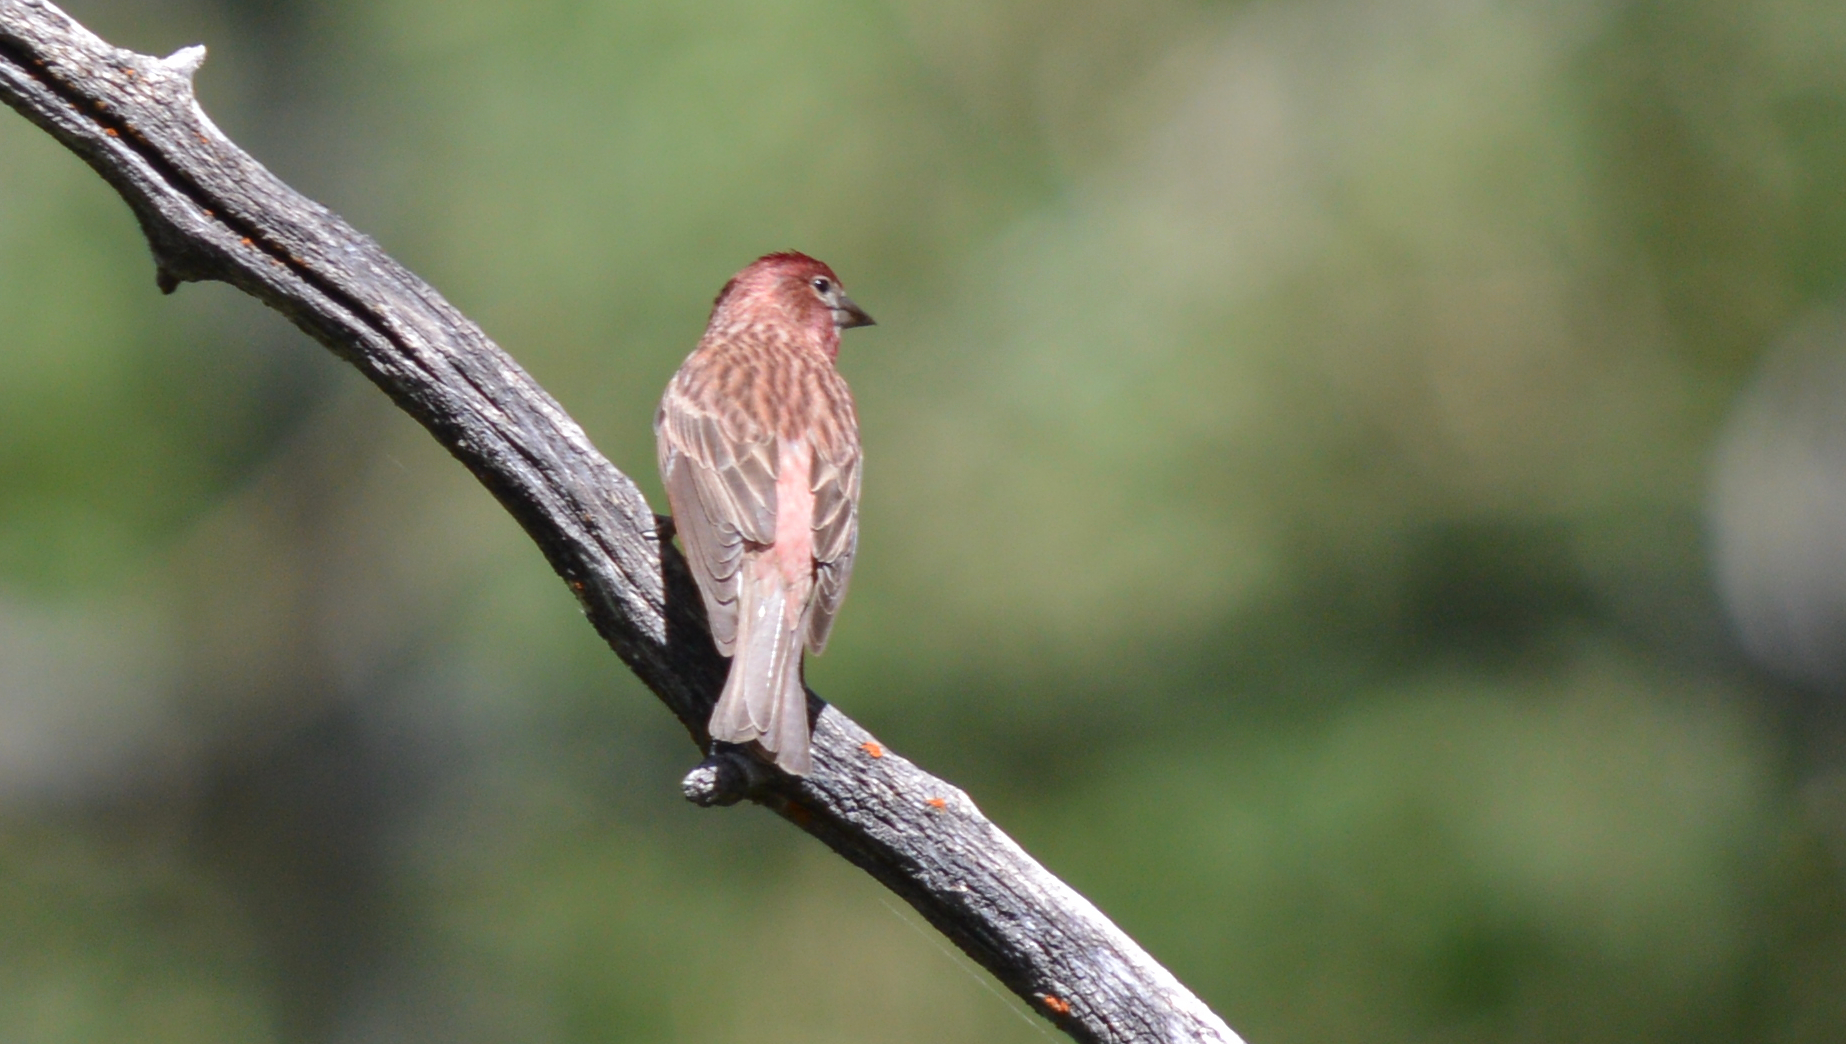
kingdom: Animalia
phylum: Chordata
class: Aves
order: Passeriformes
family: Fringillidae
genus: Haemorhous
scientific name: Haemorhous cassinii
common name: Cassin's finch
